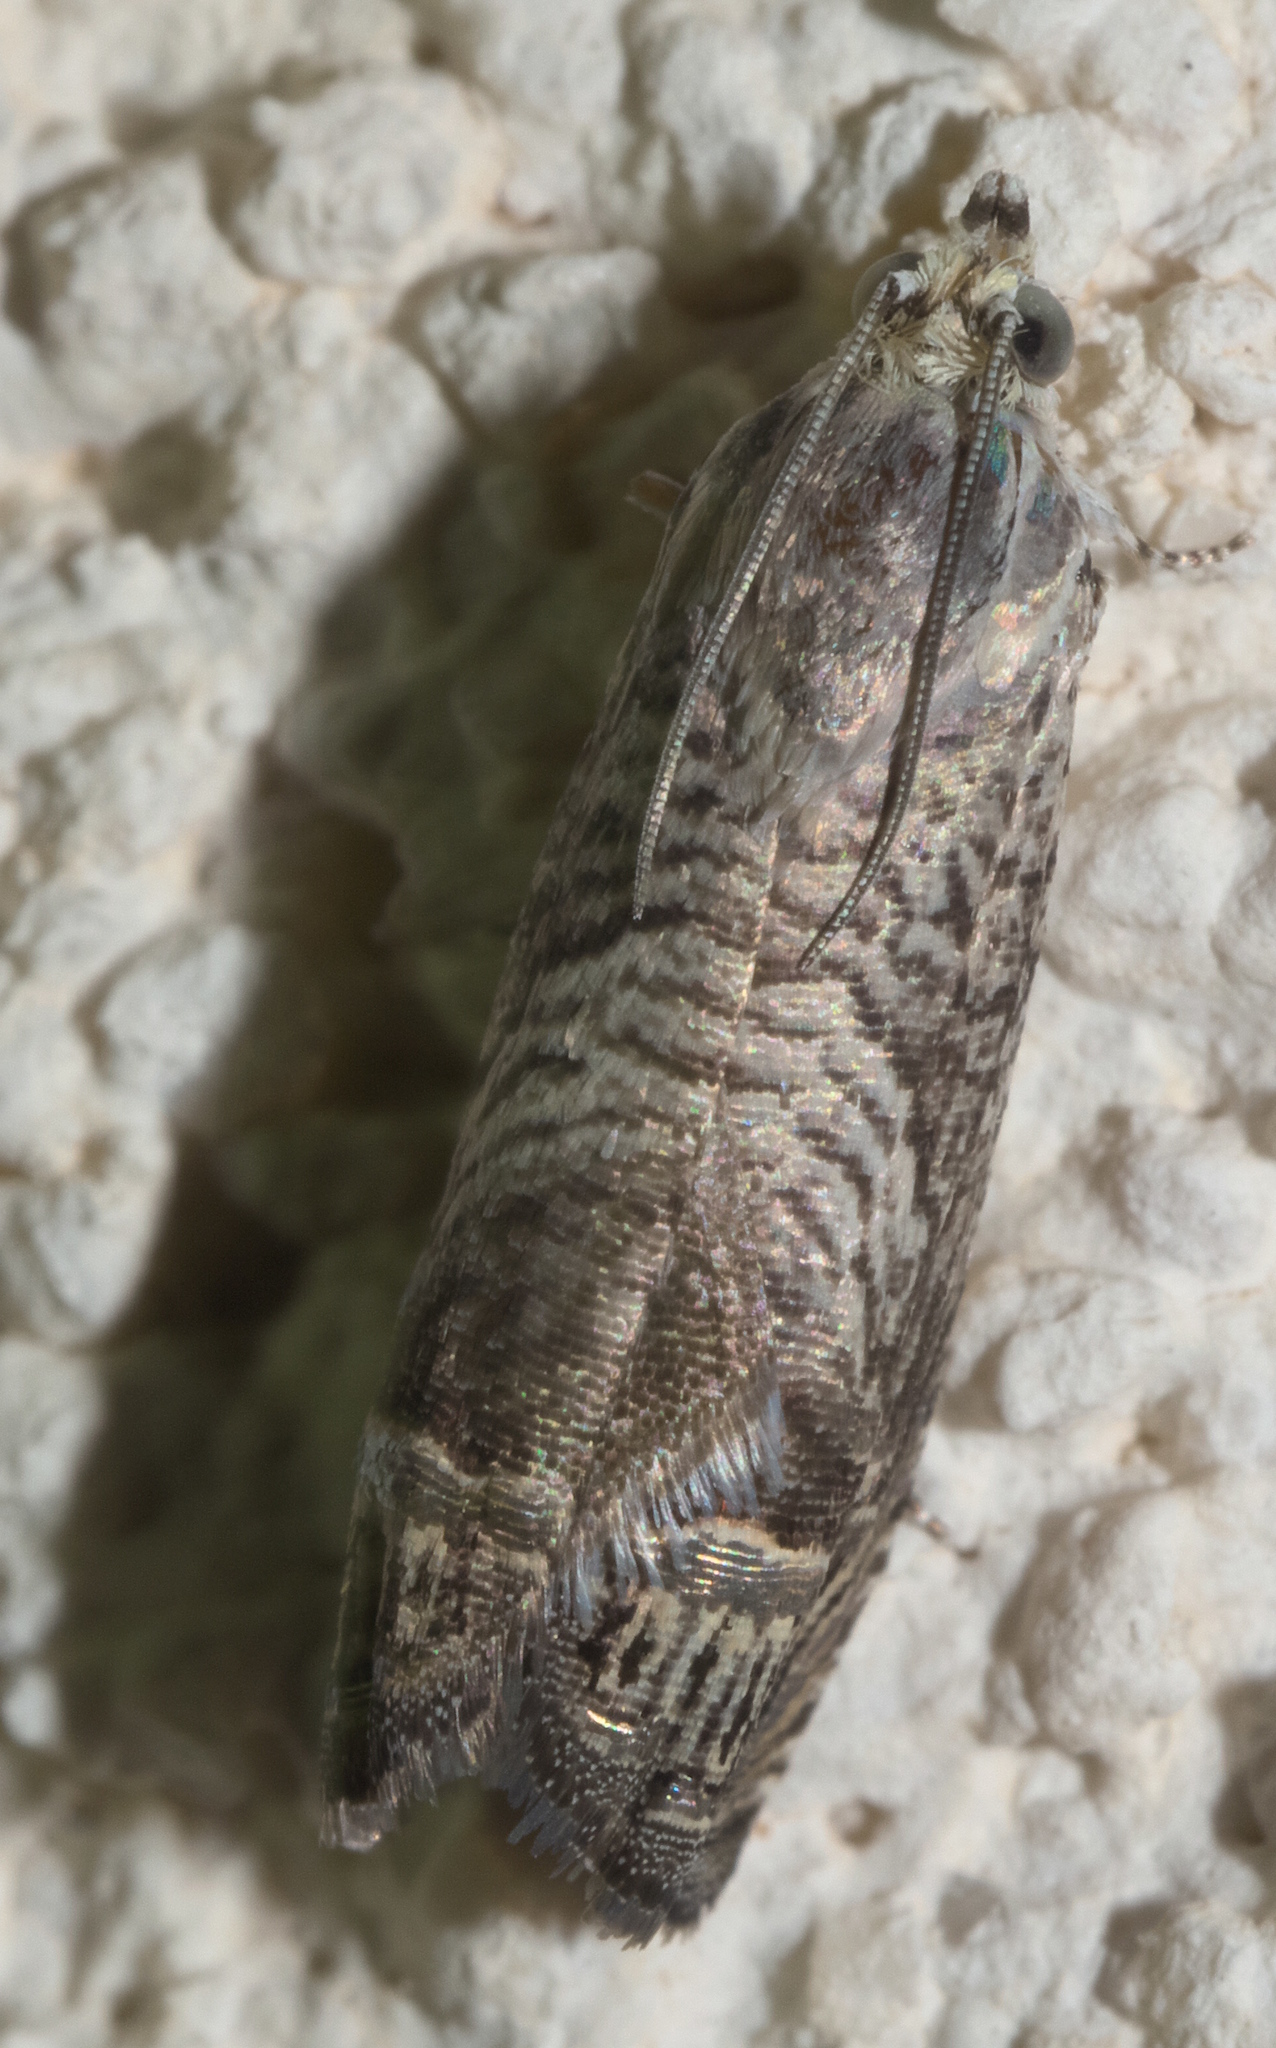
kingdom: Animalia
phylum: Arthropoda
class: Insecta
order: Lepidoptera
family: Tortricidae
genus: Ofatulena
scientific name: Ofatulena duodecemstriata
